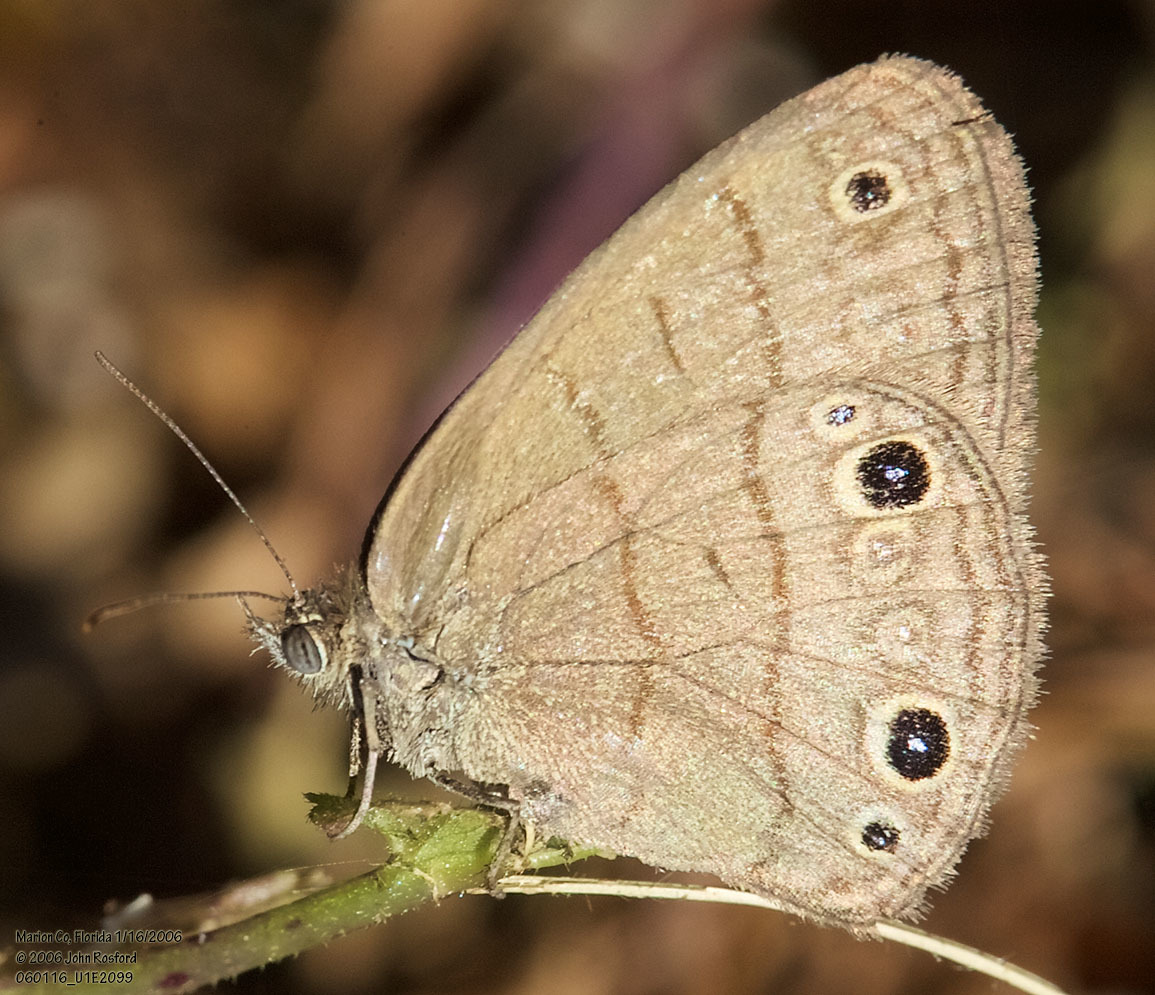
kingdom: Animalia
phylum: Arthropoda
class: Insecta
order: Lepidoptera
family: Nymphalidae
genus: Hermeuptychia
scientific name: Hermeuptychia hermes
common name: Hermes satyr
